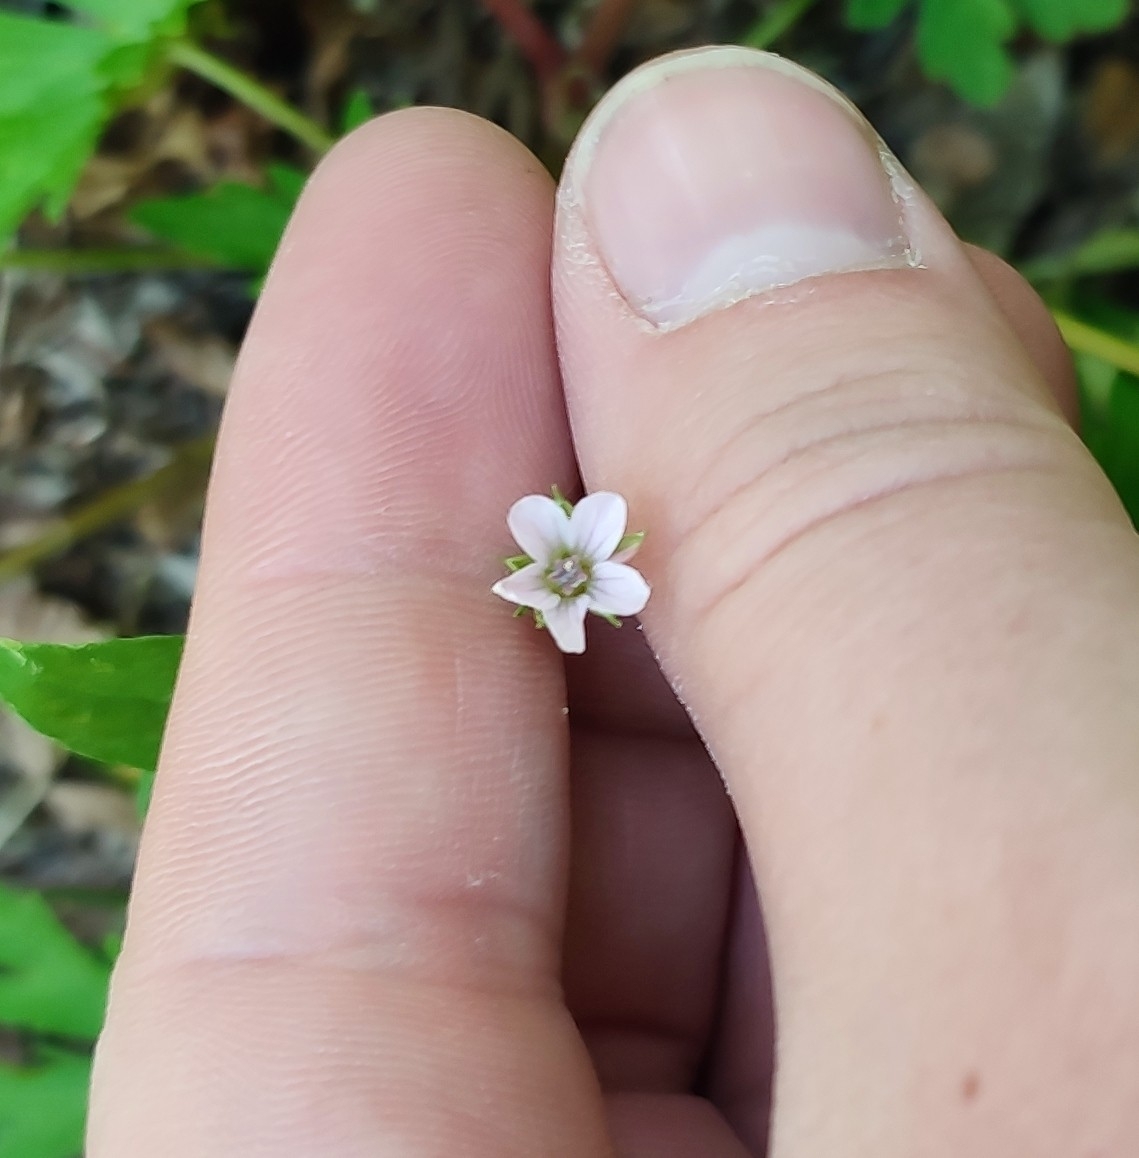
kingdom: Plantae
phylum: Tracheophyta
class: Magnoliopsida
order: Geraniales
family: Geraniaceae
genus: Geranium
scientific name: Geranium sibiricum
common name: Siberian crane's-bill
